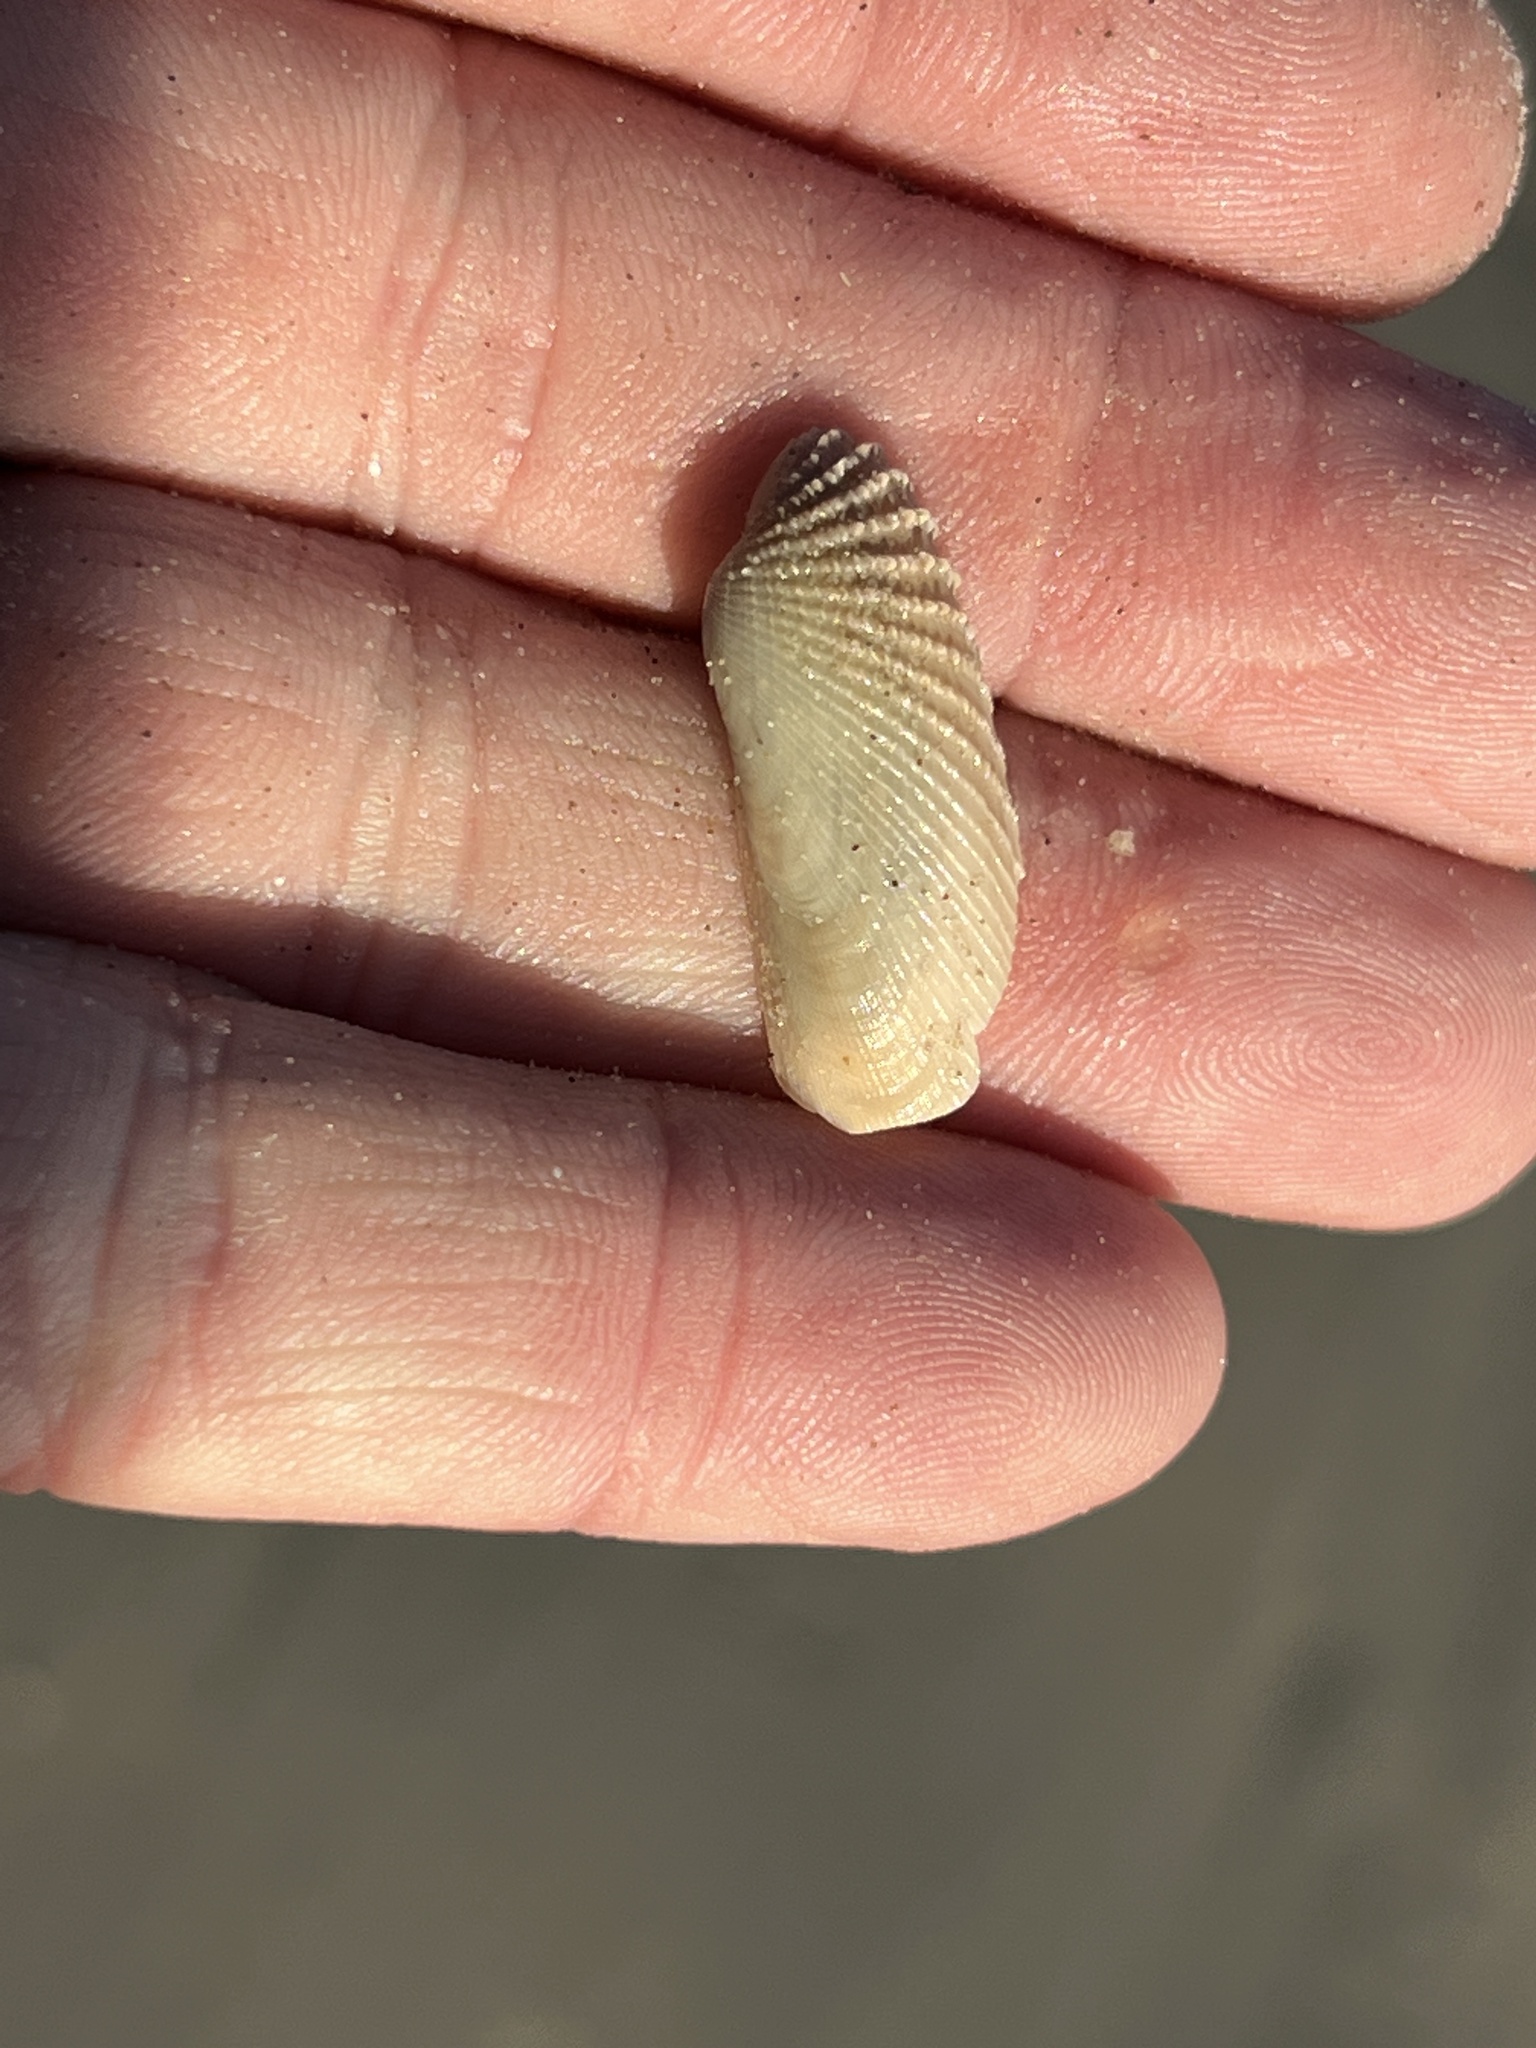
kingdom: Animalia
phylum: Mollusca
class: Bivalvia
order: Venerida
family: Veneridae
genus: Petricolaria
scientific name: Petricolaria pholadiformis
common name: American piddock
